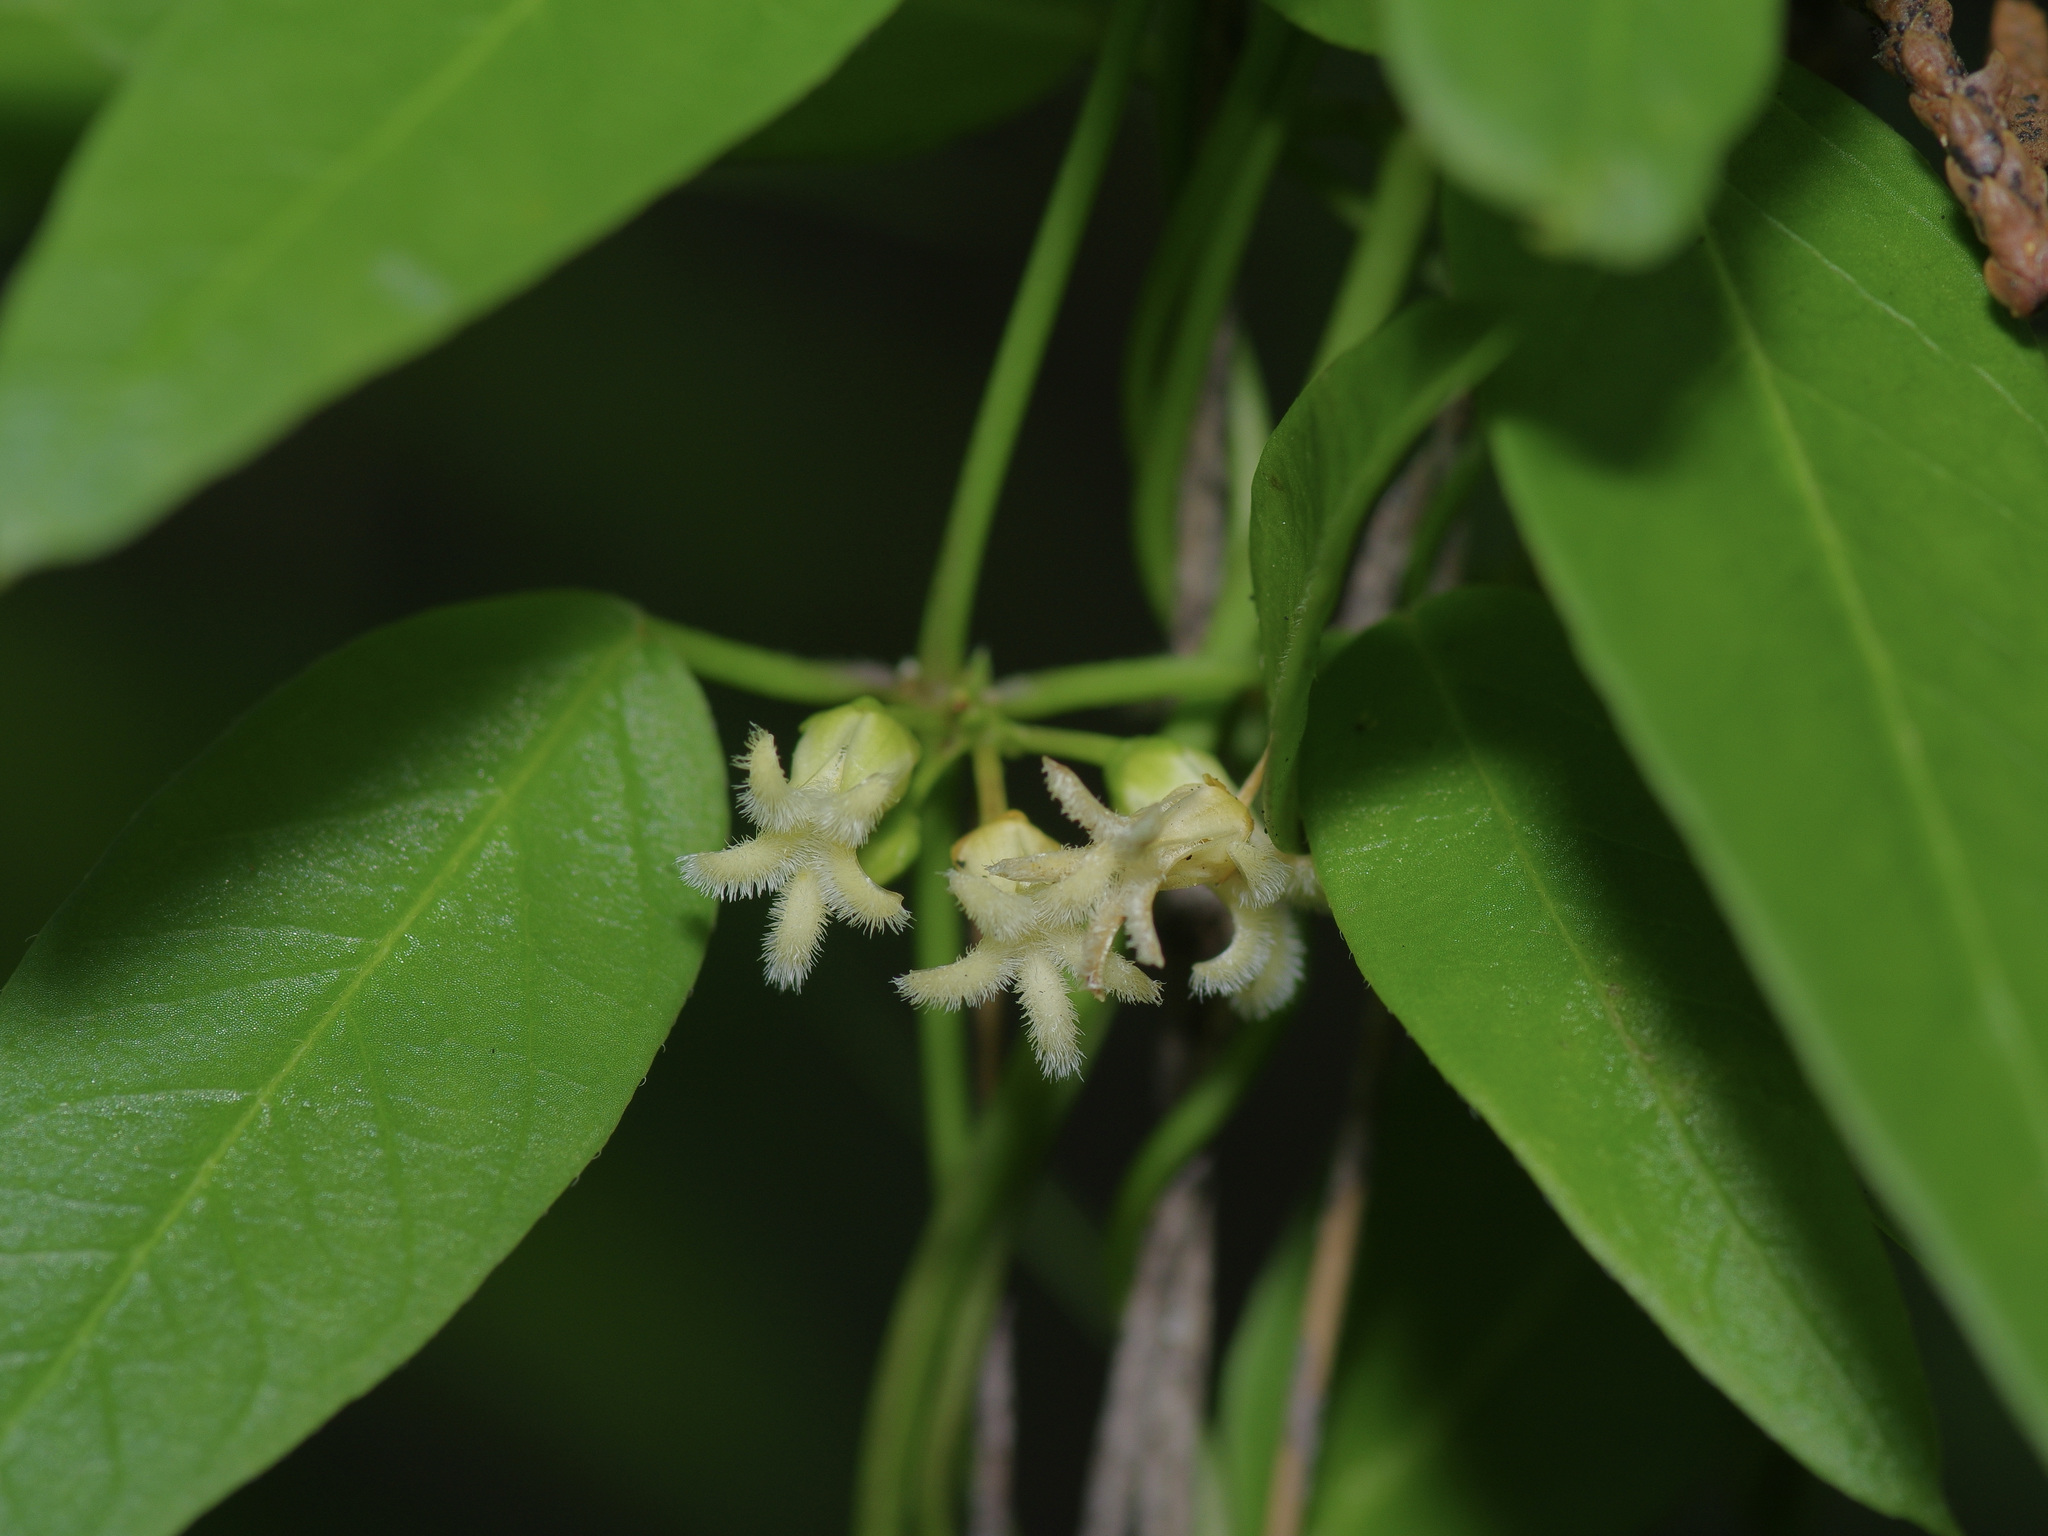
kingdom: Plantae
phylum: Tracheophyta
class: Magnoliopsida
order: Gentianales
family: Apocynaceae
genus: Metastelma
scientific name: Metastelma barbigerum
